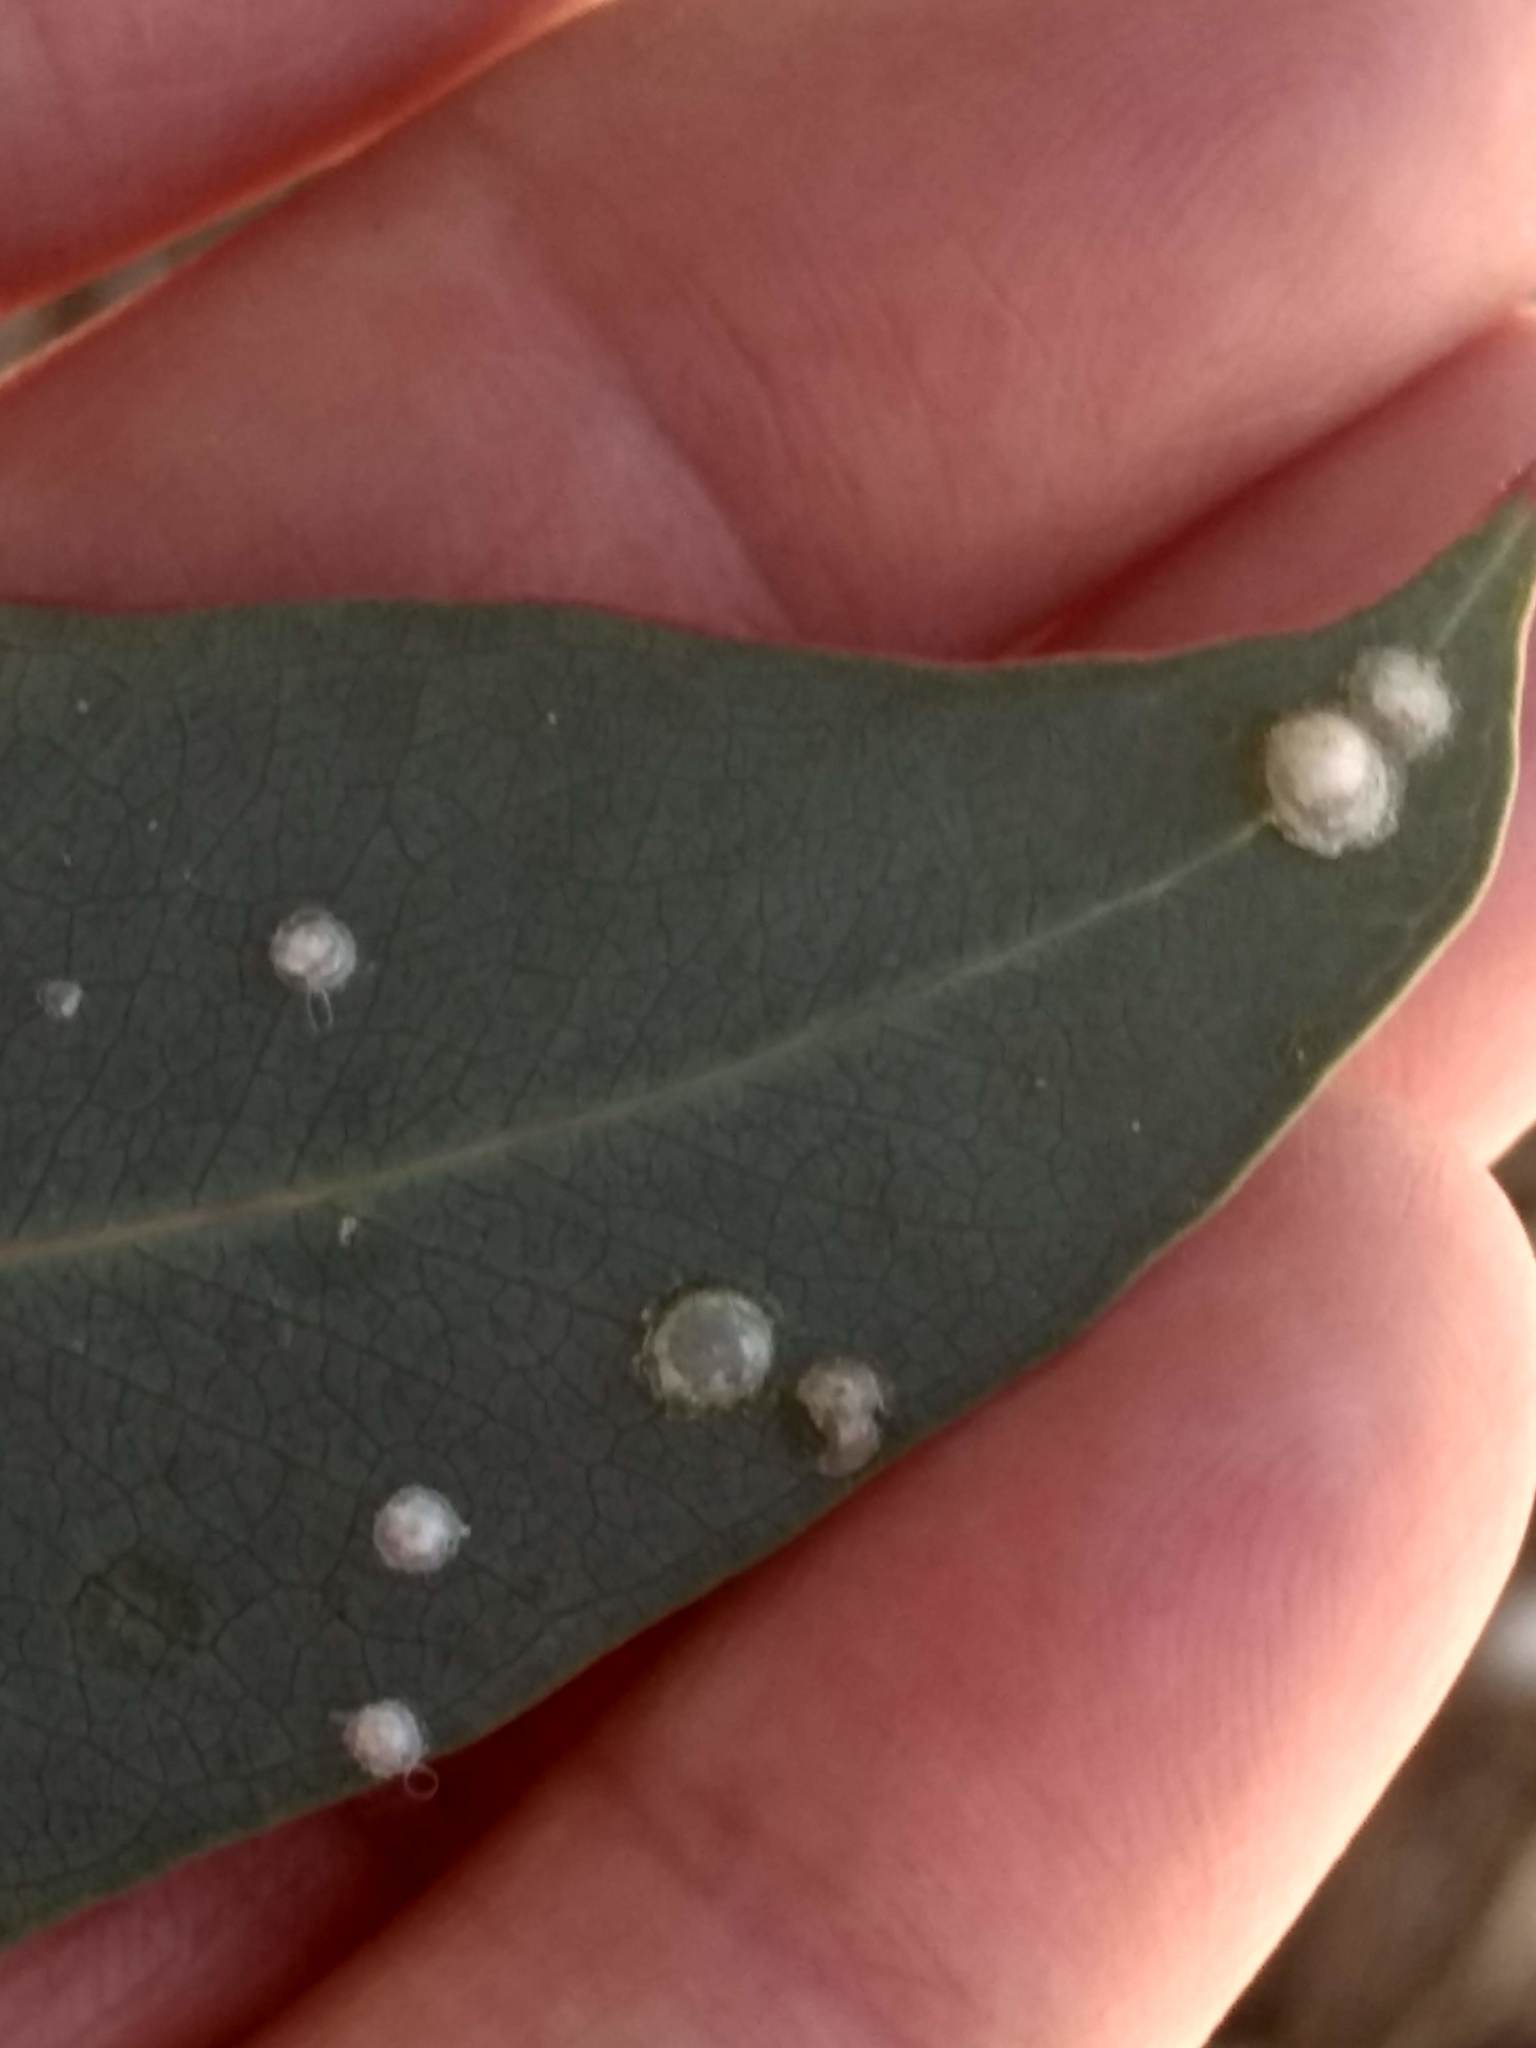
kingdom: Animalia
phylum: Arthropoda
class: Insecta
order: Hemiptera
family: Aphalaridae
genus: Glycaspis
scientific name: Glycaspis brimblecombei
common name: Red gum lerp psyllid
